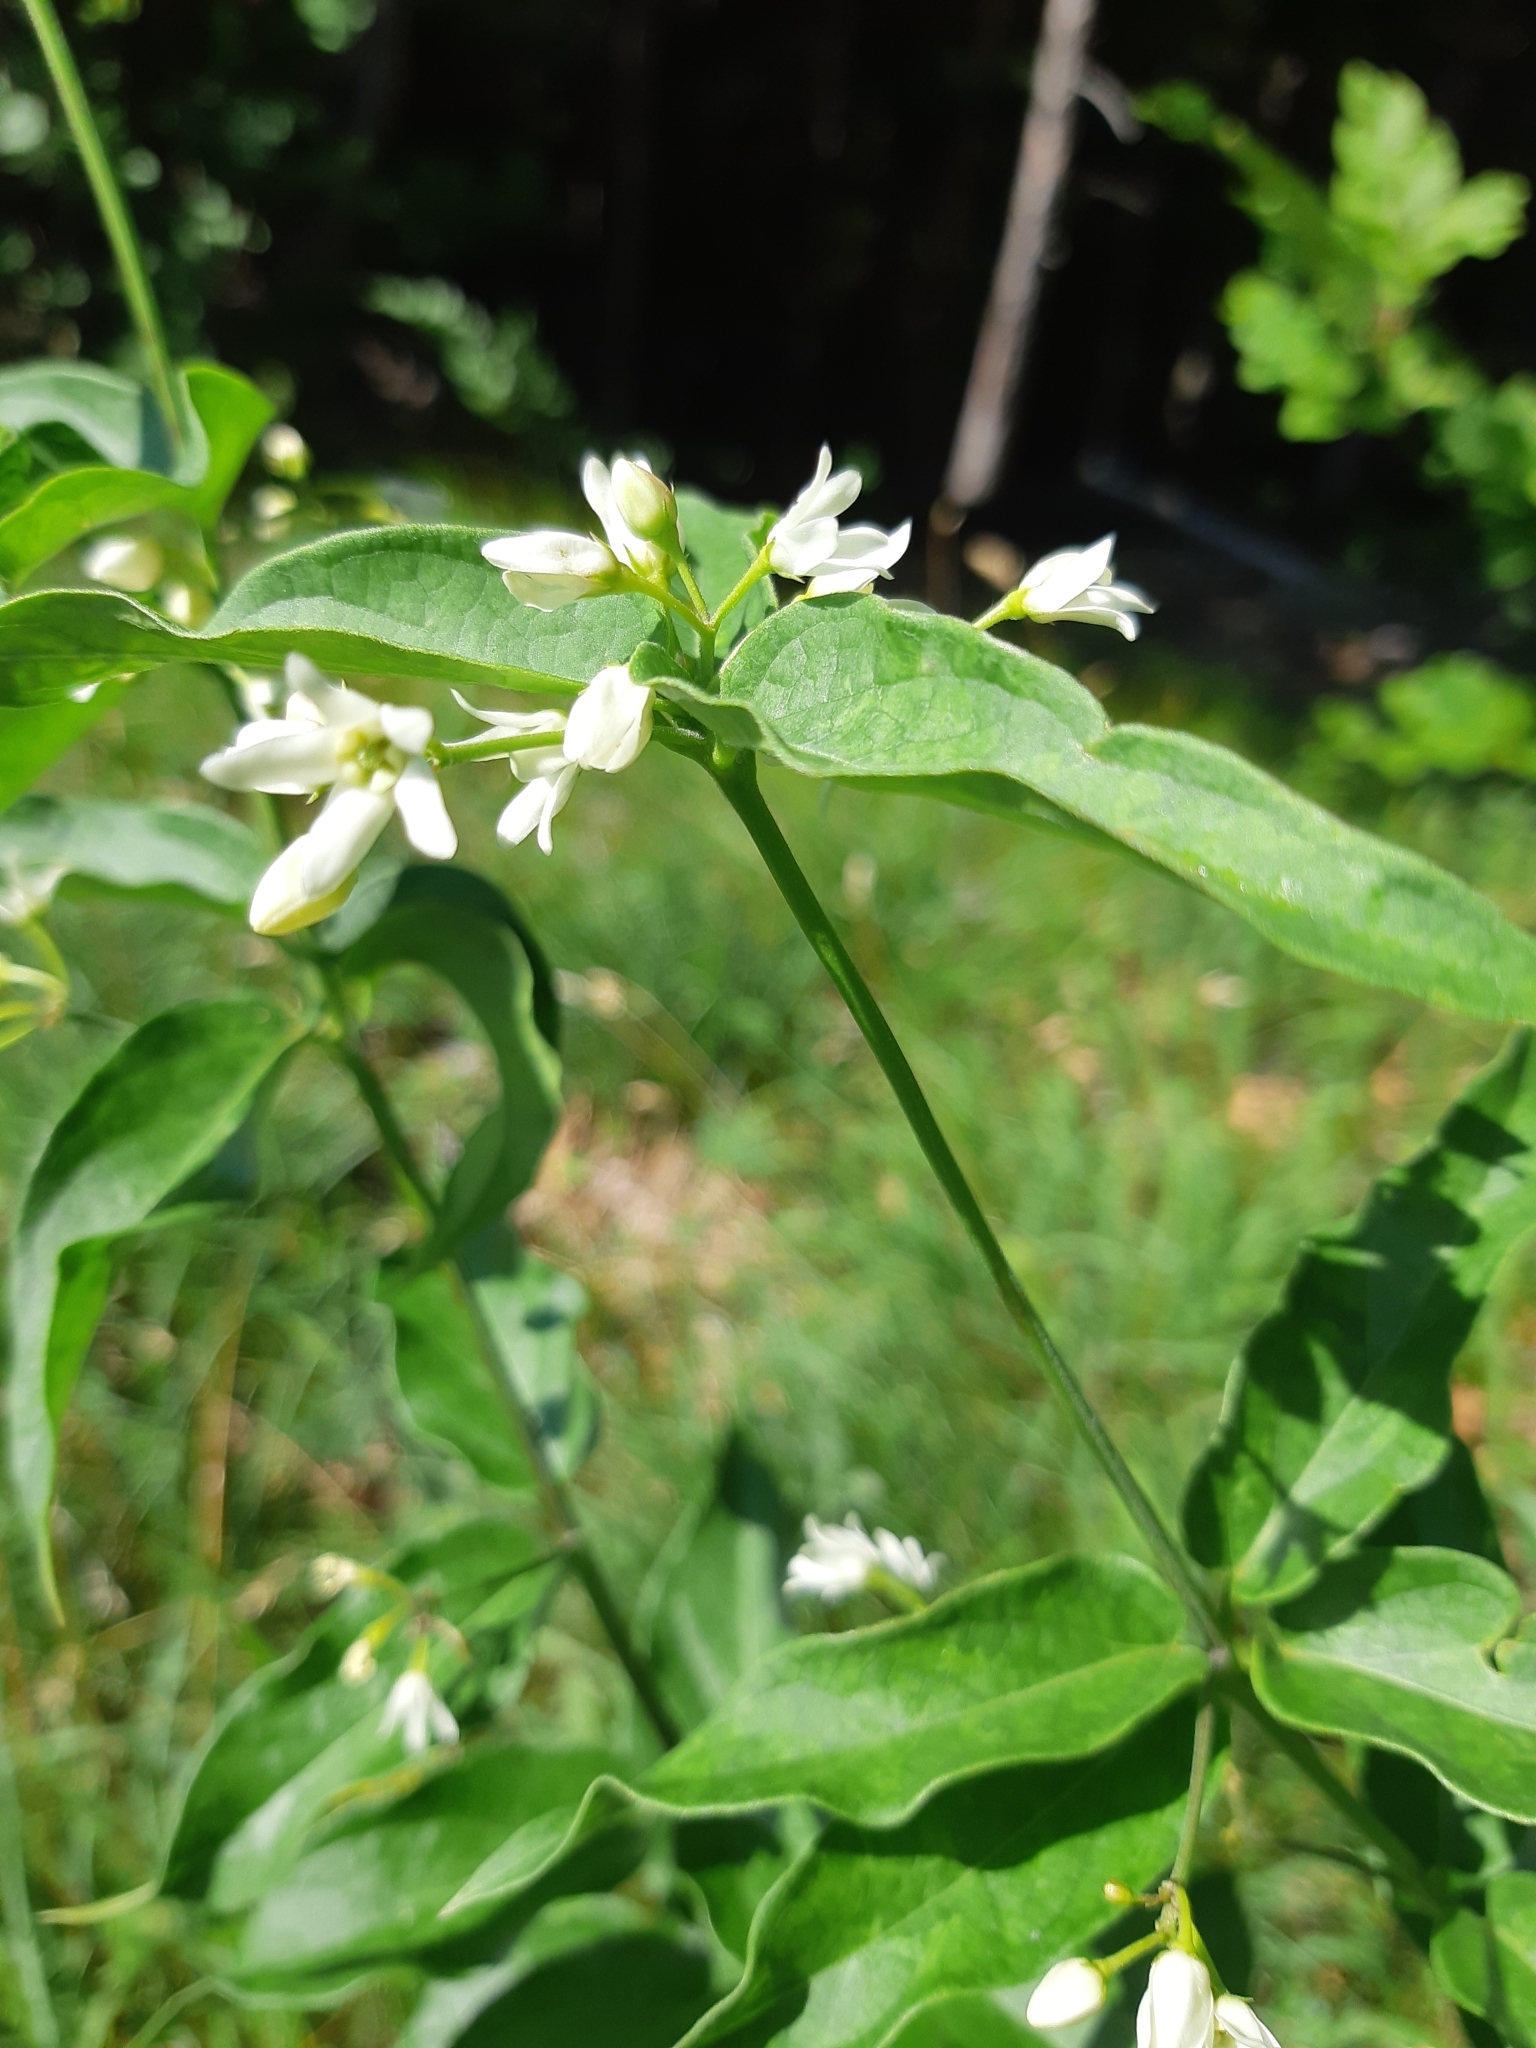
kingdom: Plantae
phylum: Tracheophyta
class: Magnoliopsida
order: Gentianales
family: Apocynaceae
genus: Vincetoxicum
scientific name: Vincetoxicum hirundinaria
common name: White swallowwort
